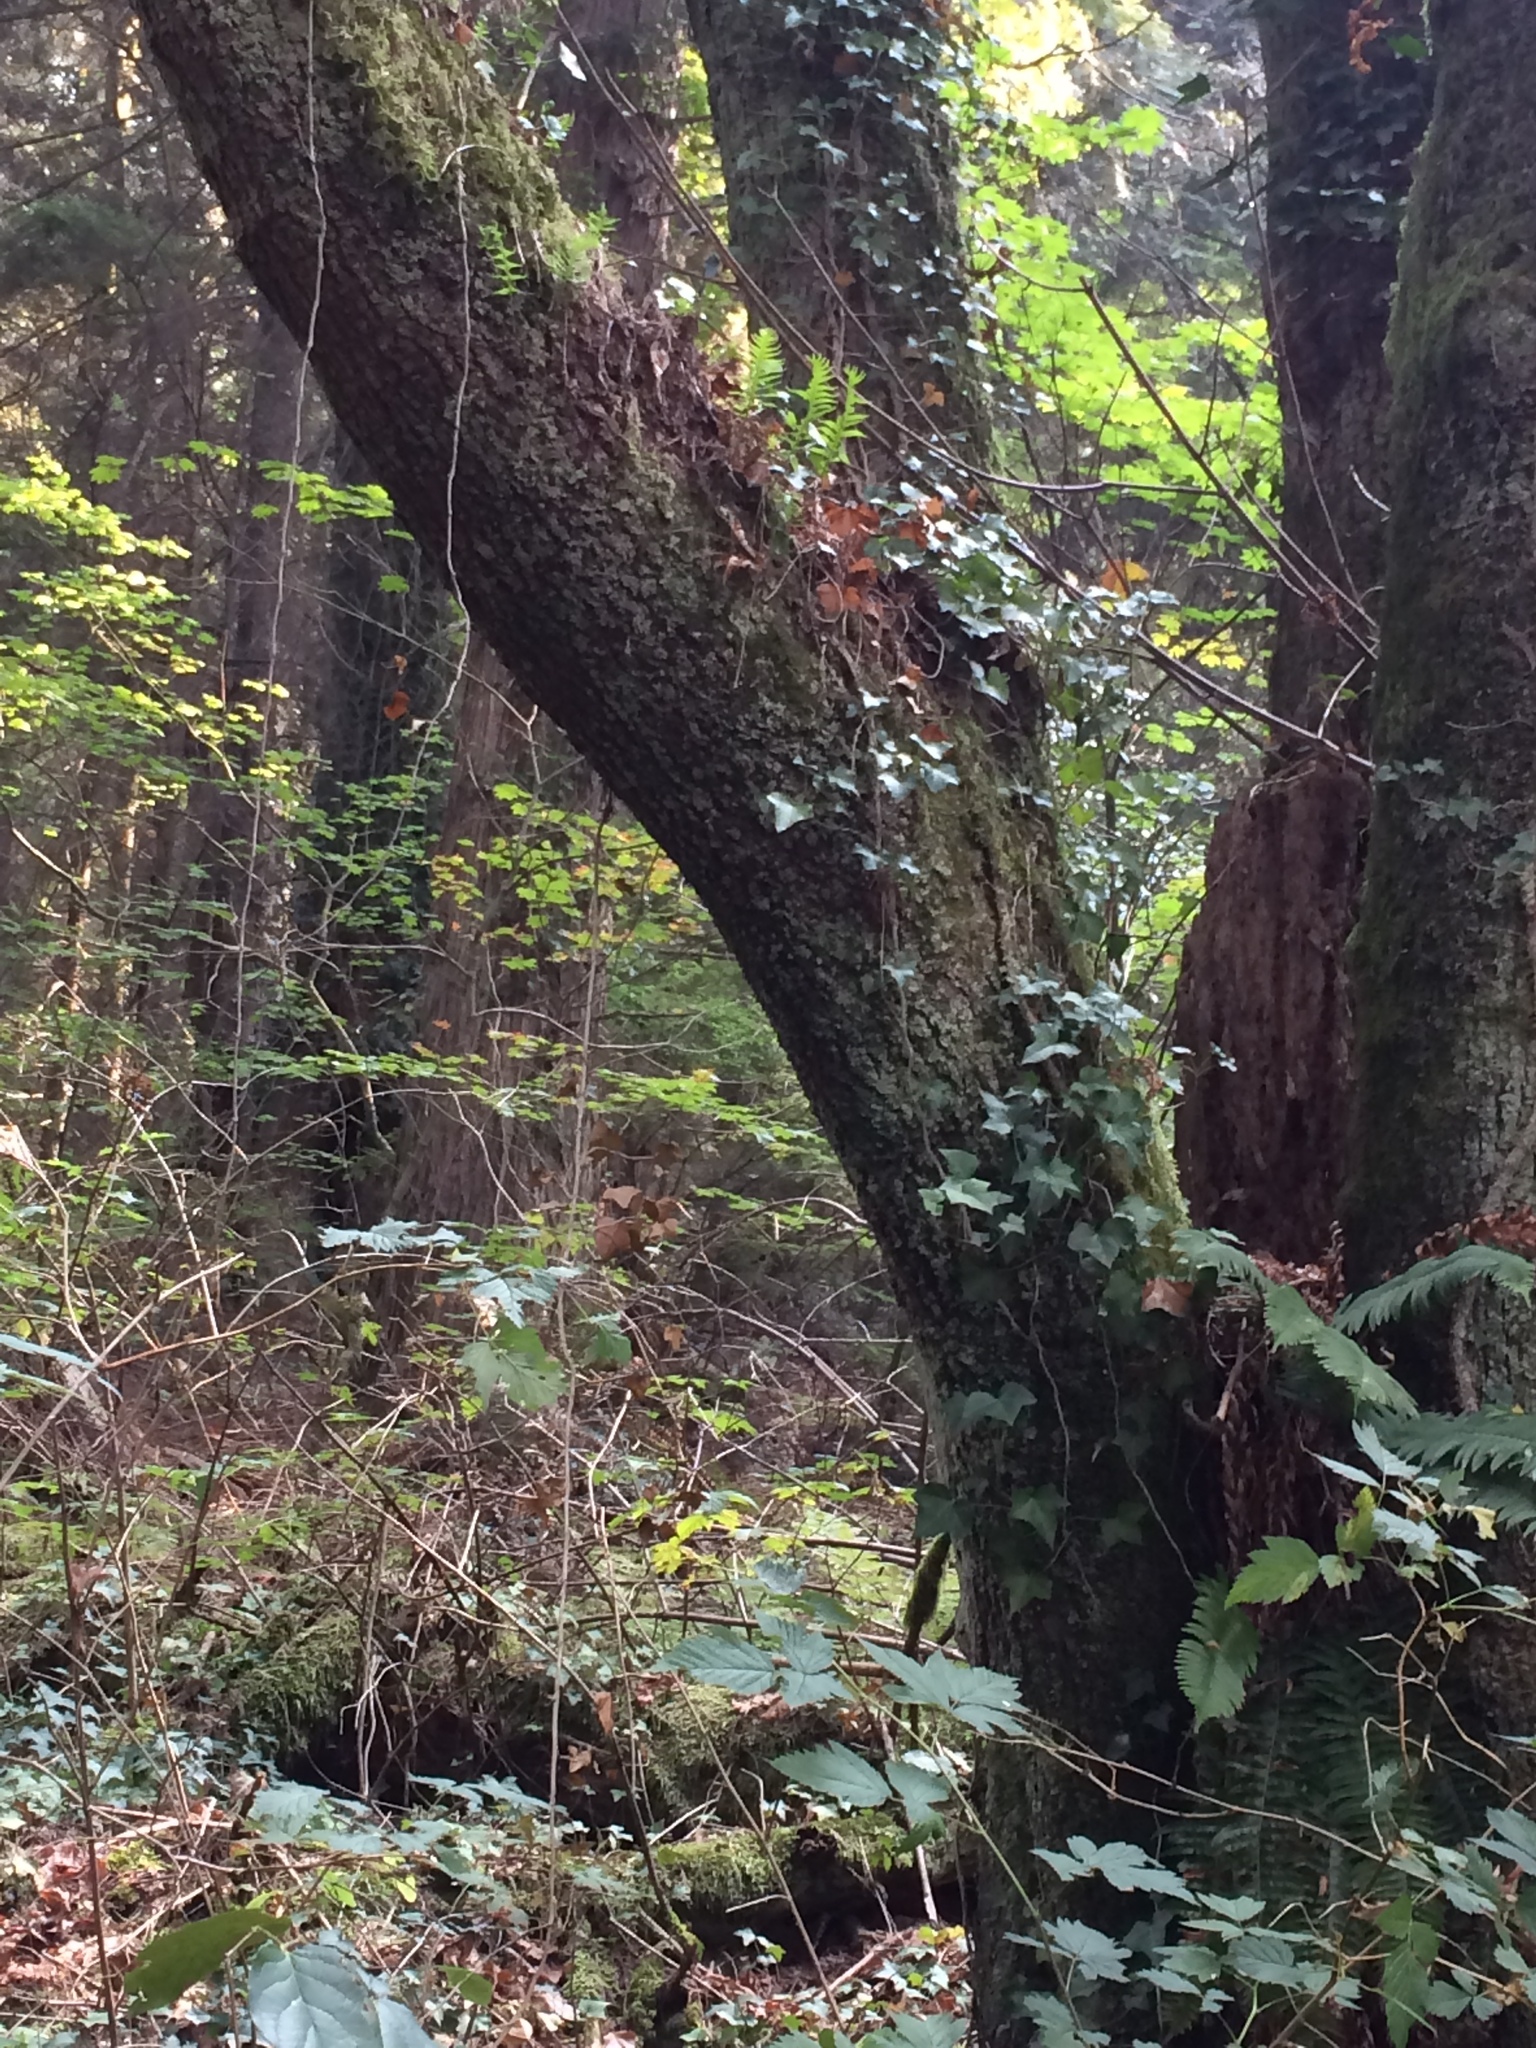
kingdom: Plantae
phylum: Tracheophyta
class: Magnoliopsida
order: Apiales
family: Araliaceae
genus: Hedera
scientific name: Hedera helix
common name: Ivy
